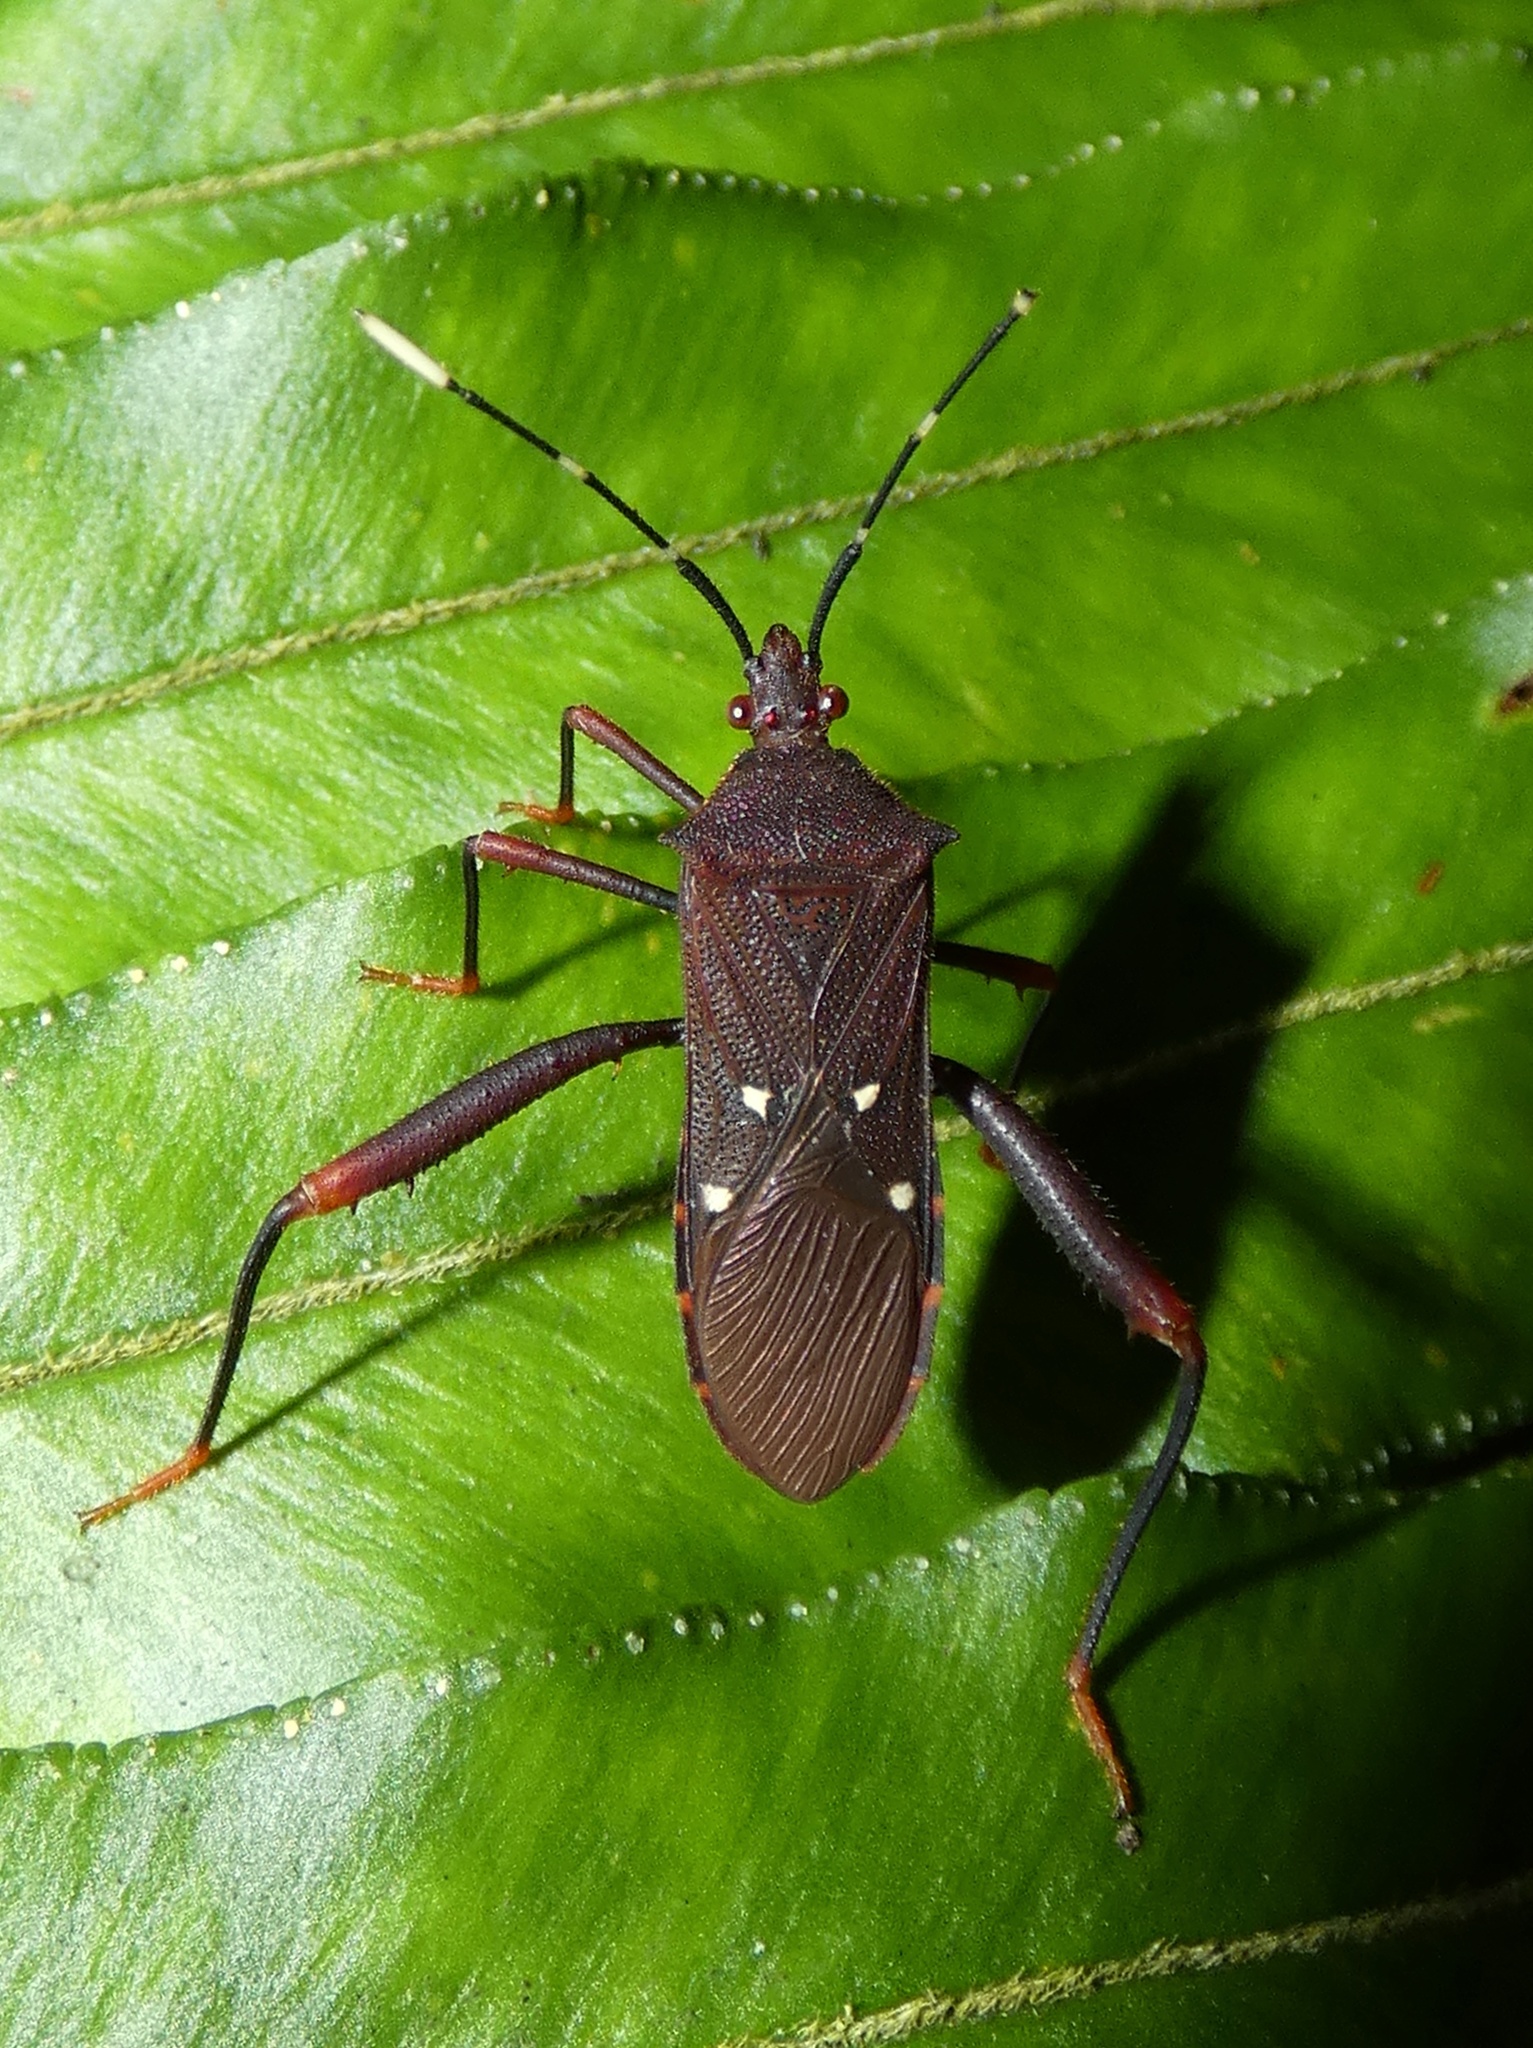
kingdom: Animalia
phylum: Arthropoda
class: Insecta
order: Hemiptera
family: Coreidae
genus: Leptoscelis
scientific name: Leptoscelis quadrisignatus
